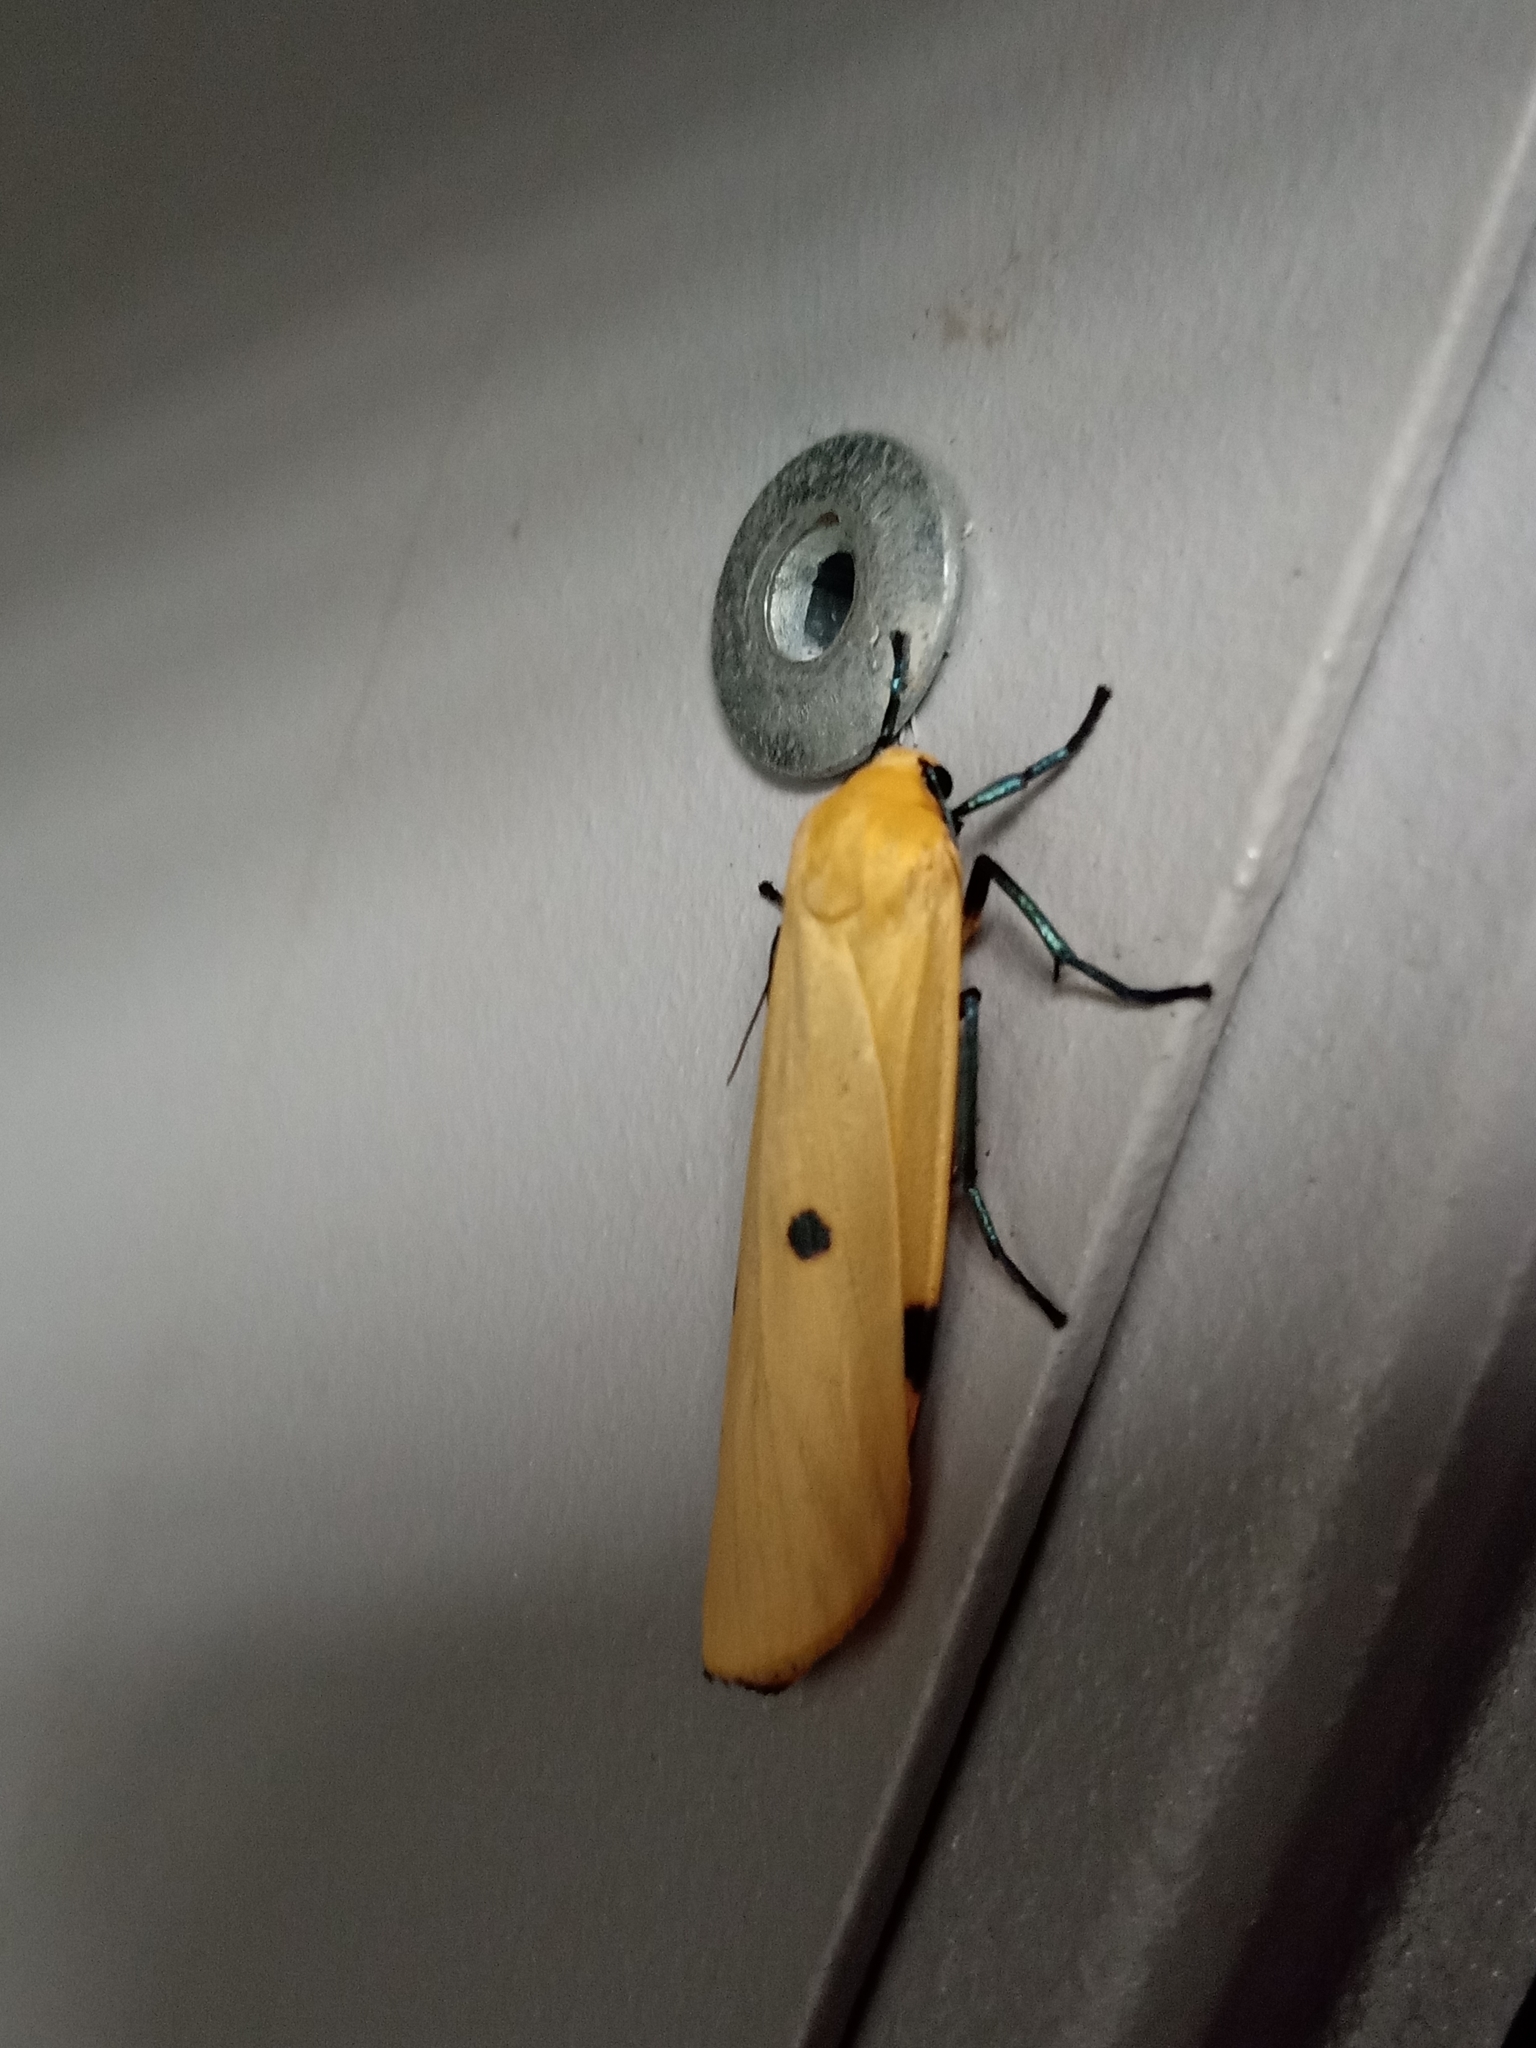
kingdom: Animalia
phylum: Arthropoda
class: Insecta
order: Lepidoptera
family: Erebidae
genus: Lithosia
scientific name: Lithosia quadra
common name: Four-spotted footman
